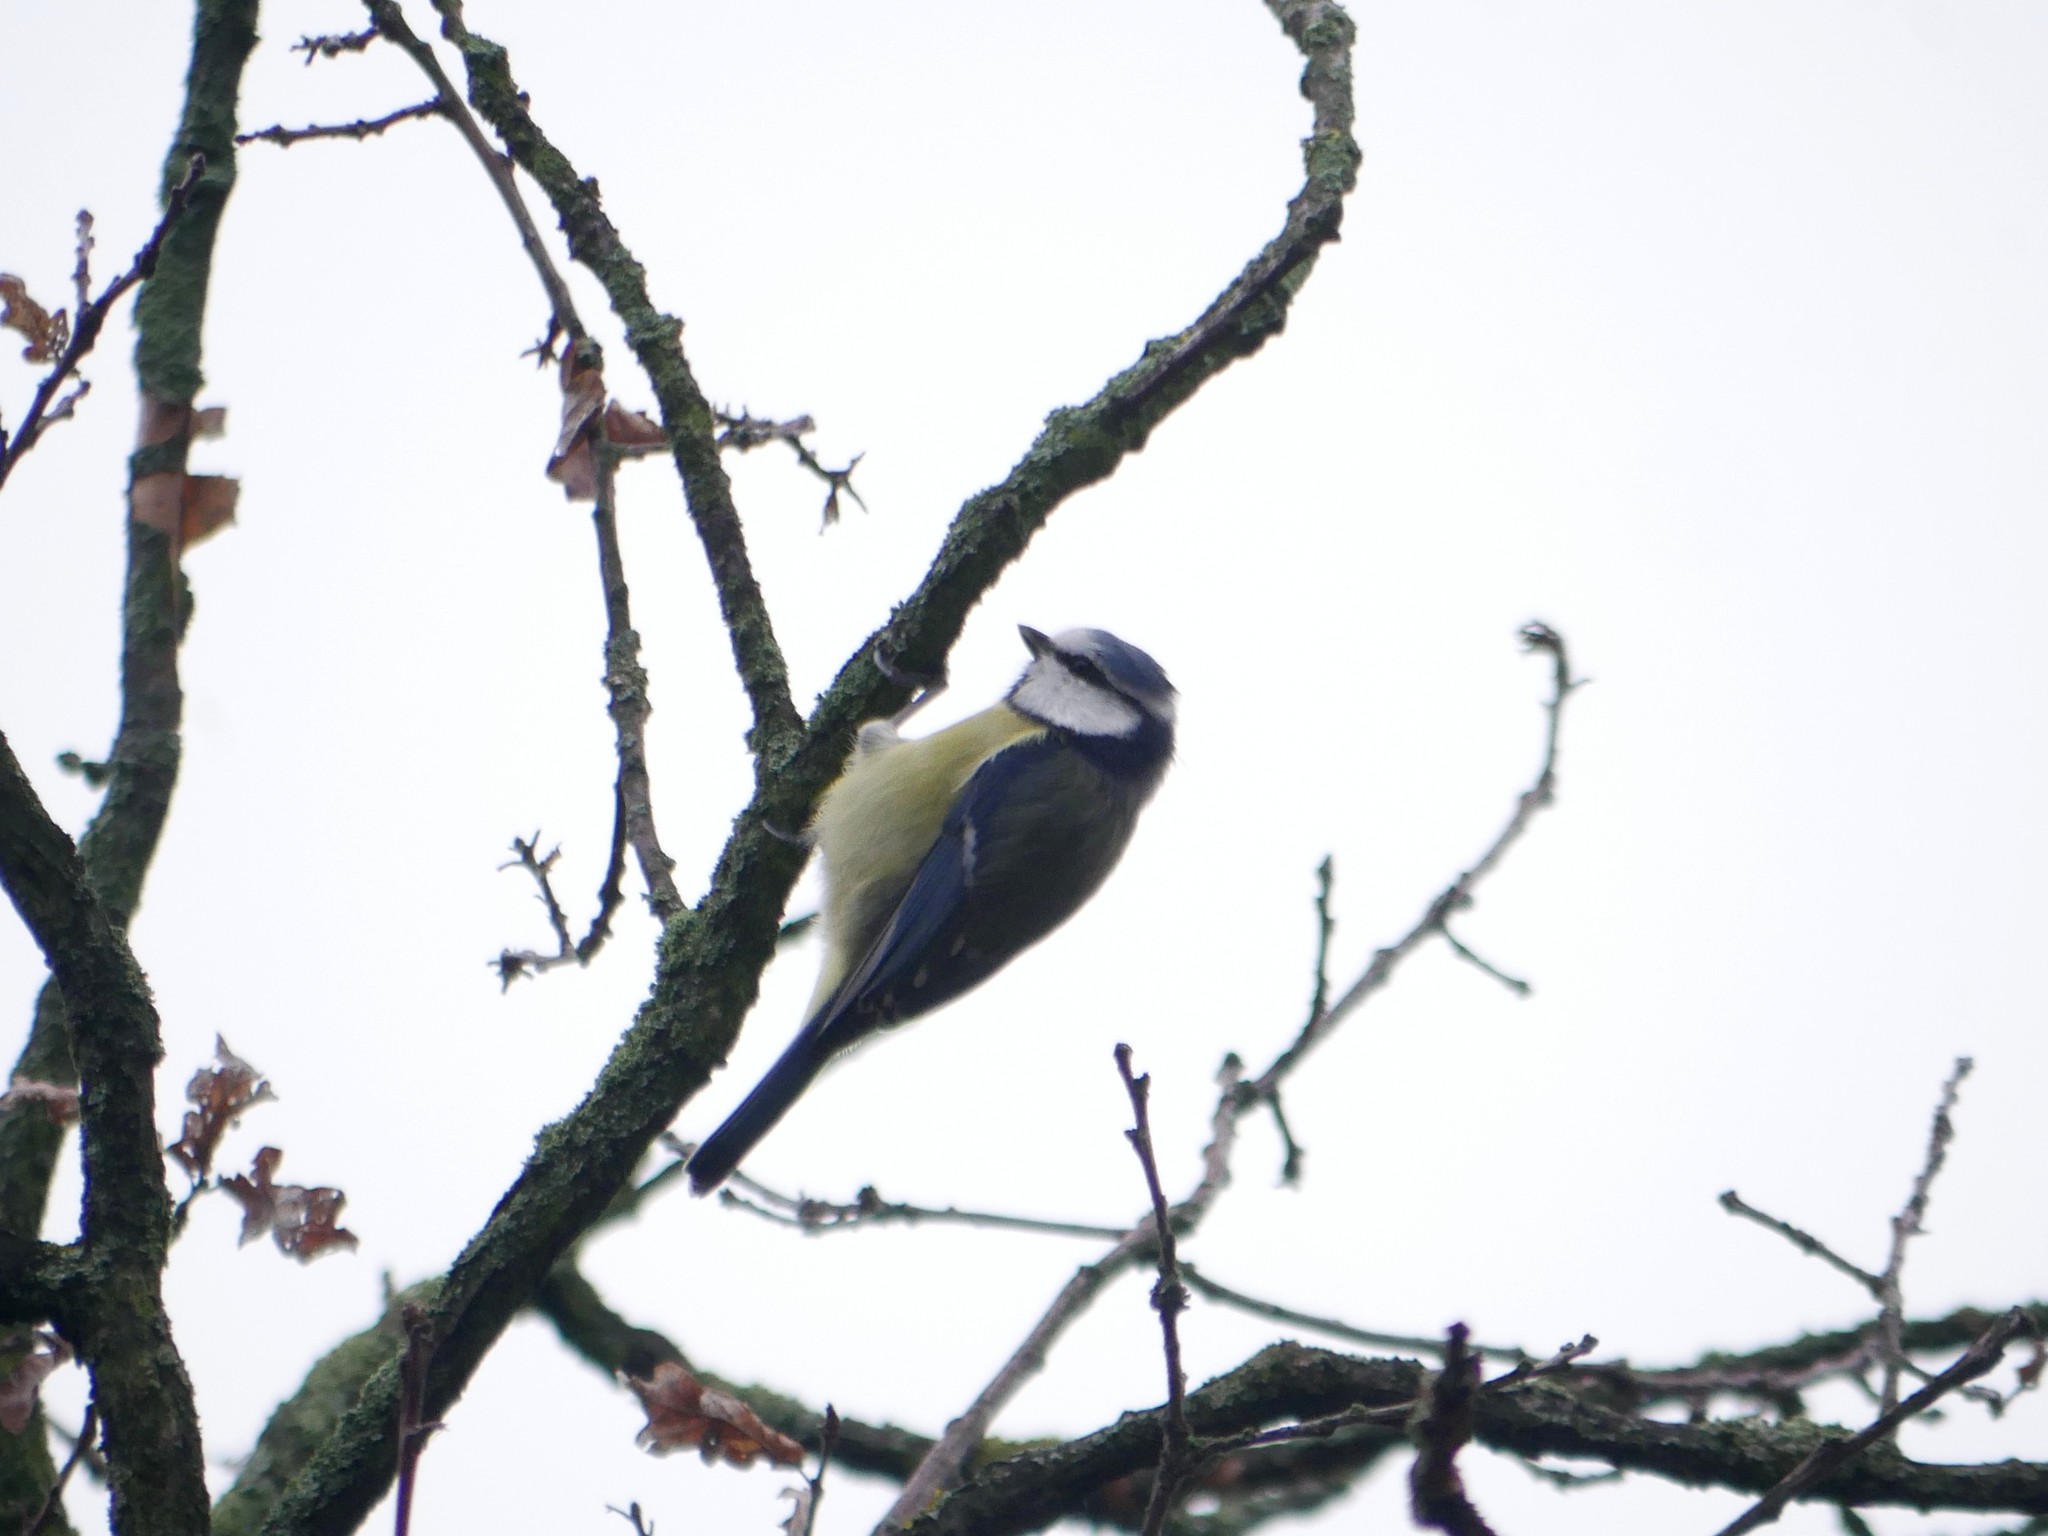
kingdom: Animalia
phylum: Chordata
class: Aves
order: Passeriformes
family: Paridae
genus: Cyanistes
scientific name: Cyanistes caeruleus
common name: Eurasian blue tit
